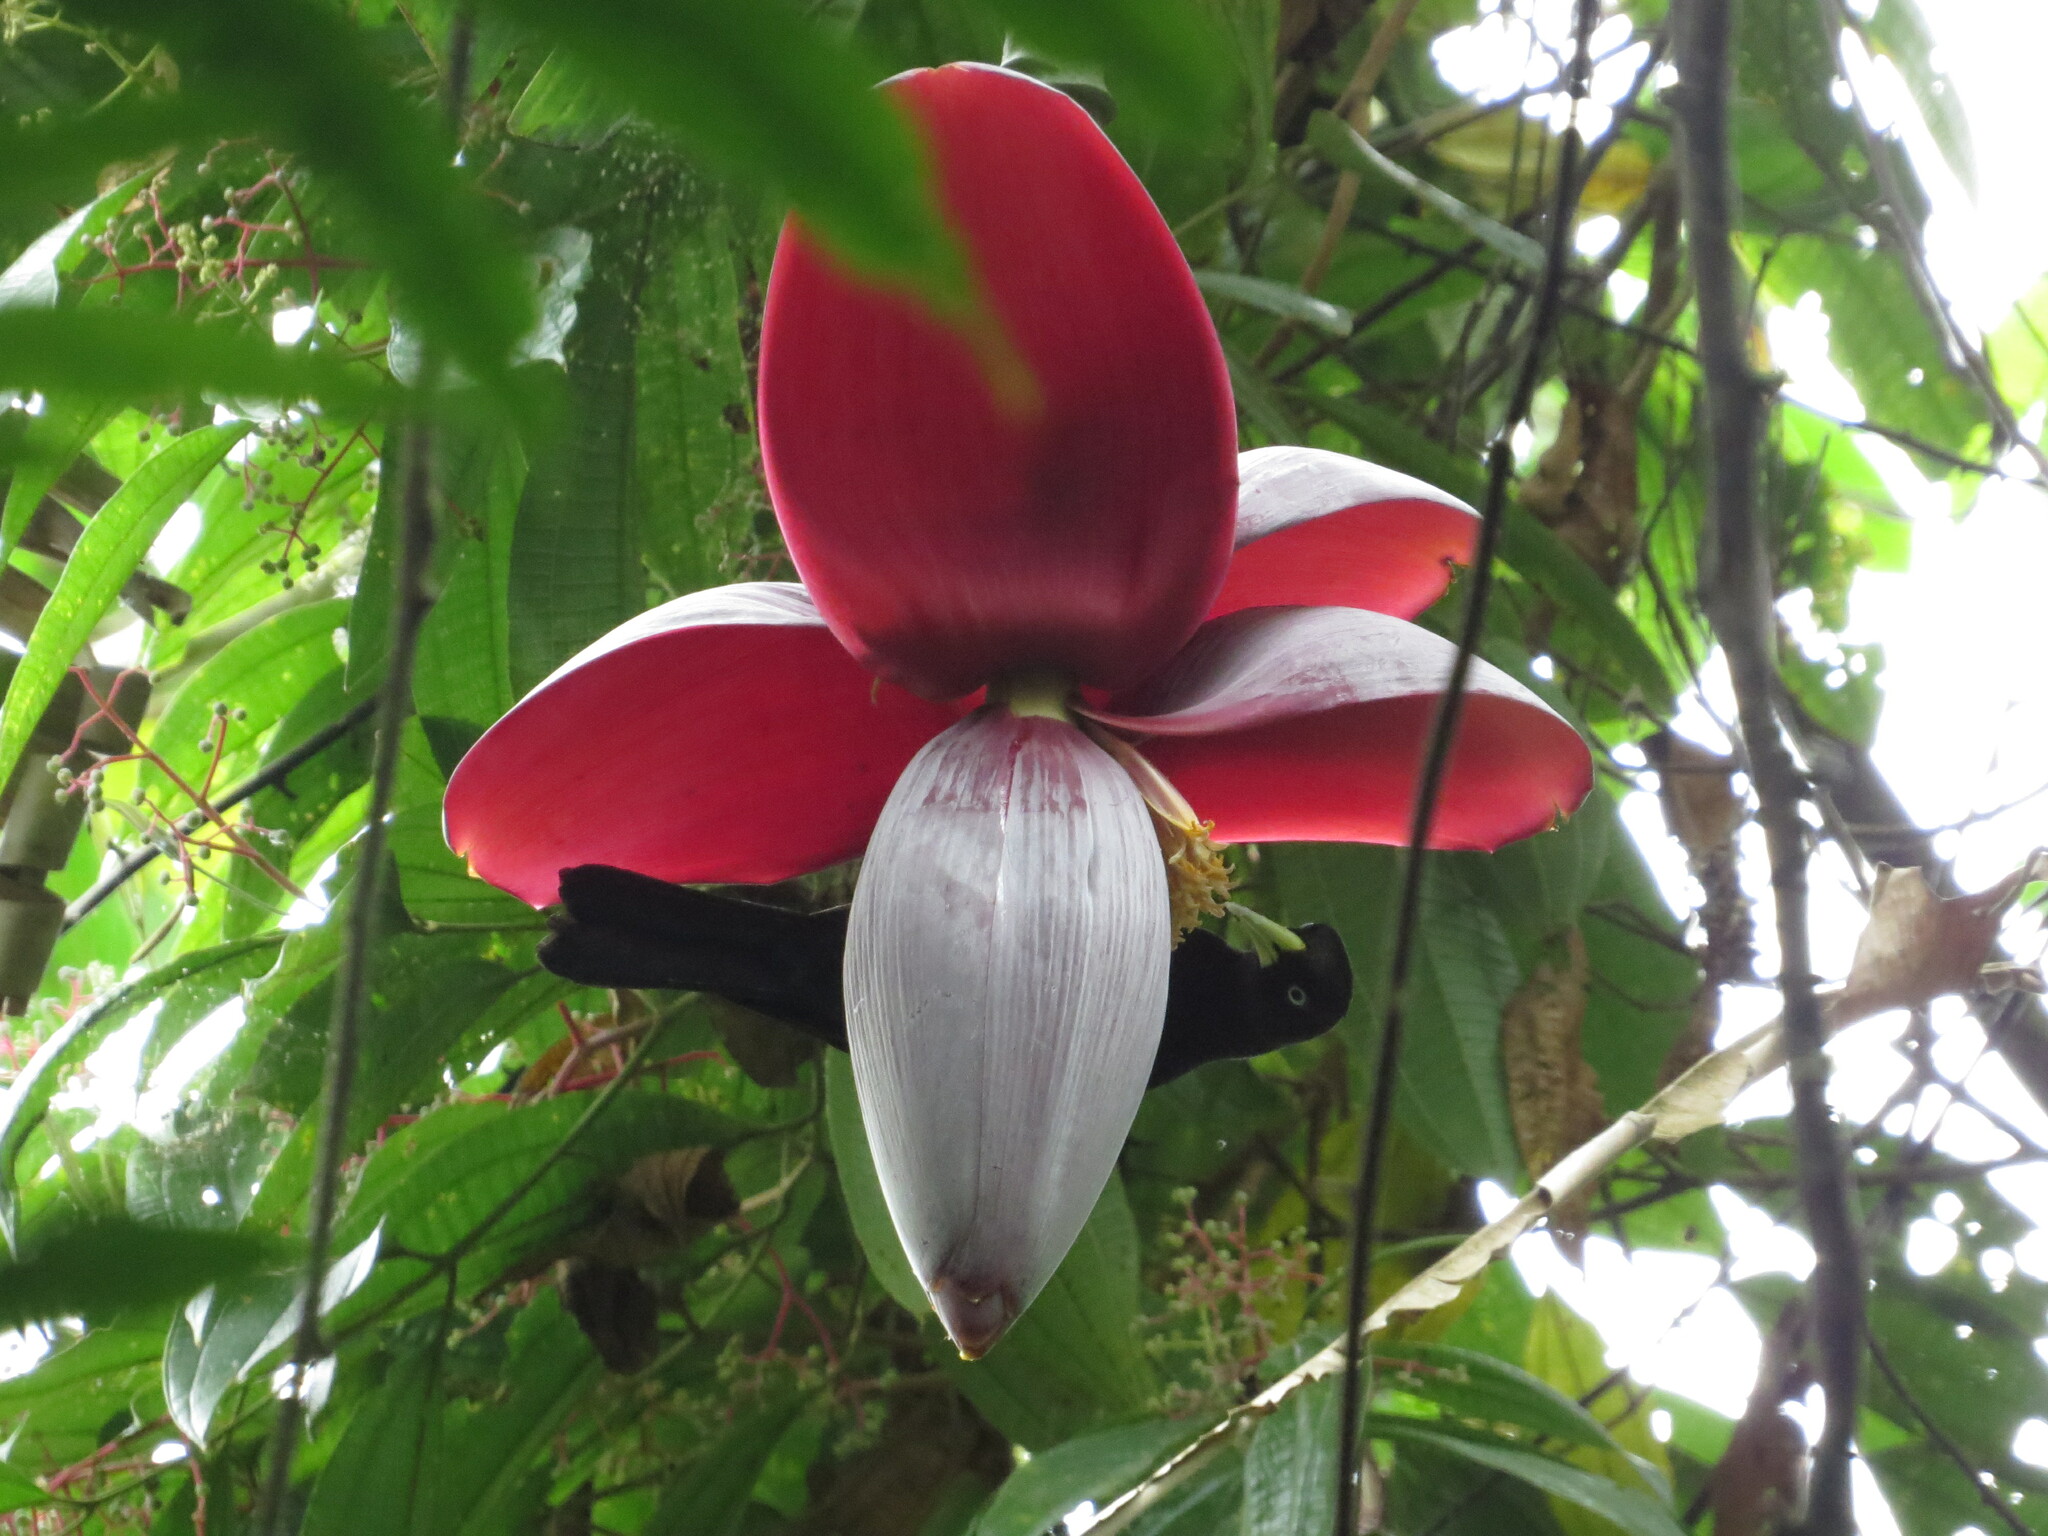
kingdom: Plantae
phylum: Tracheophyta
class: Liliopsida
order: Zingiberales
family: Musaceae
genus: Musa
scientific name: Musa balbisiana
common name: Plantain
